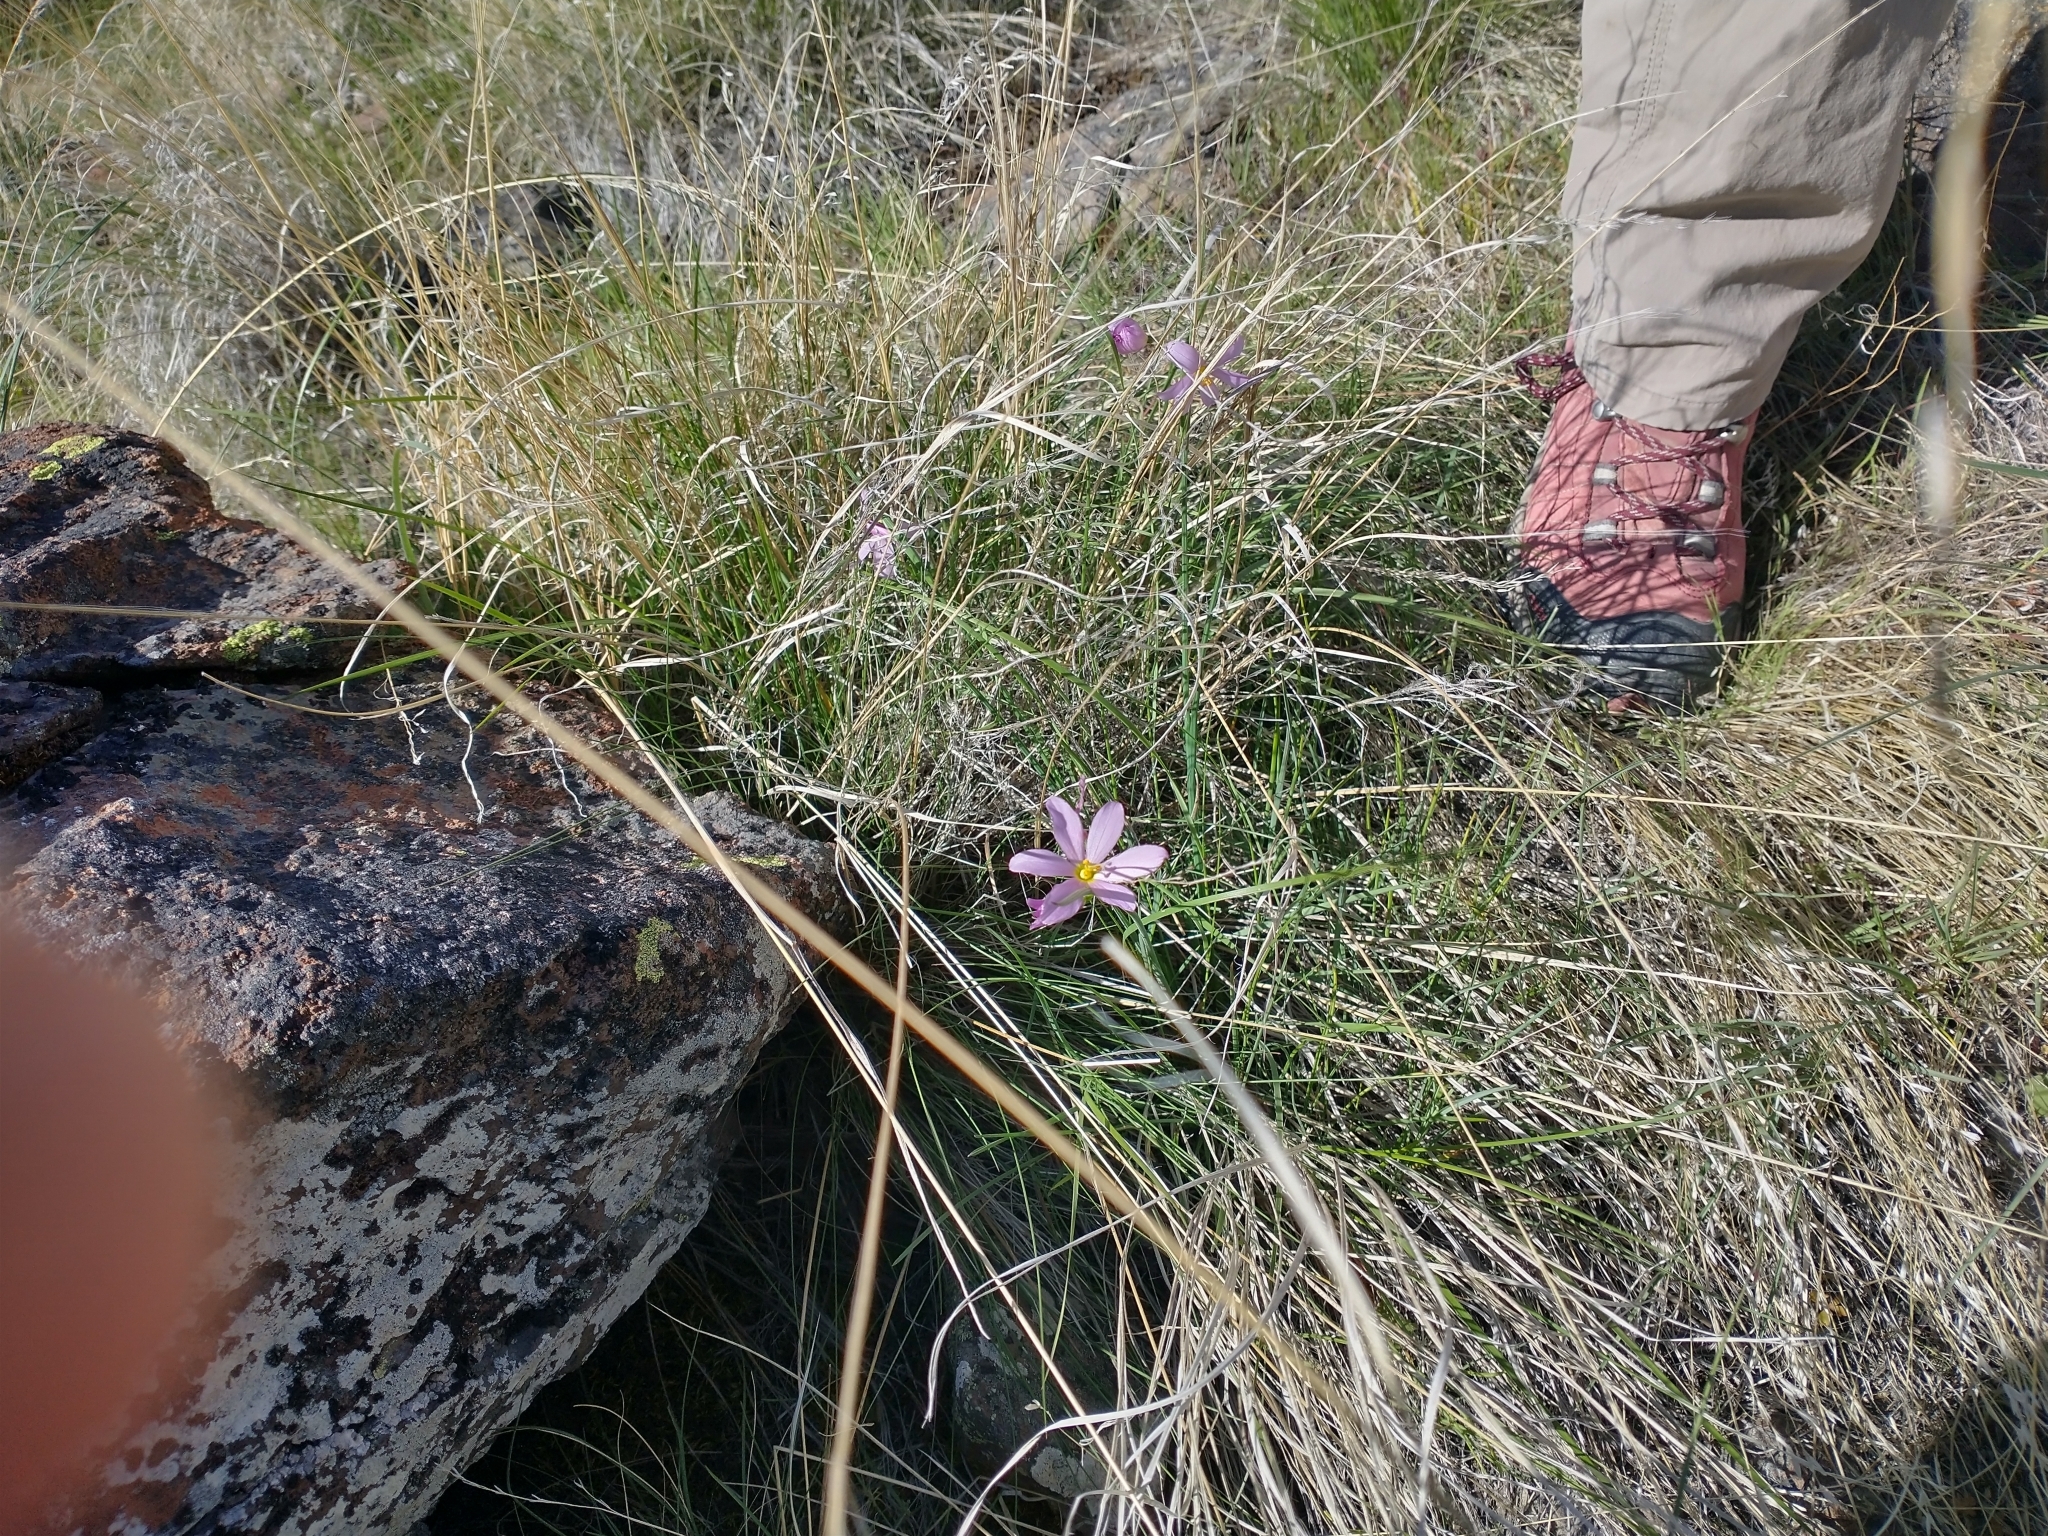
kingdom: Plantae
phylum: Tracheophyta
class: Liliopsida
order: Asparagales
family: Iridaceae
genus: Olsynium
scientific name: Olsynium douglasii
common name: Douglas' grasswidow
